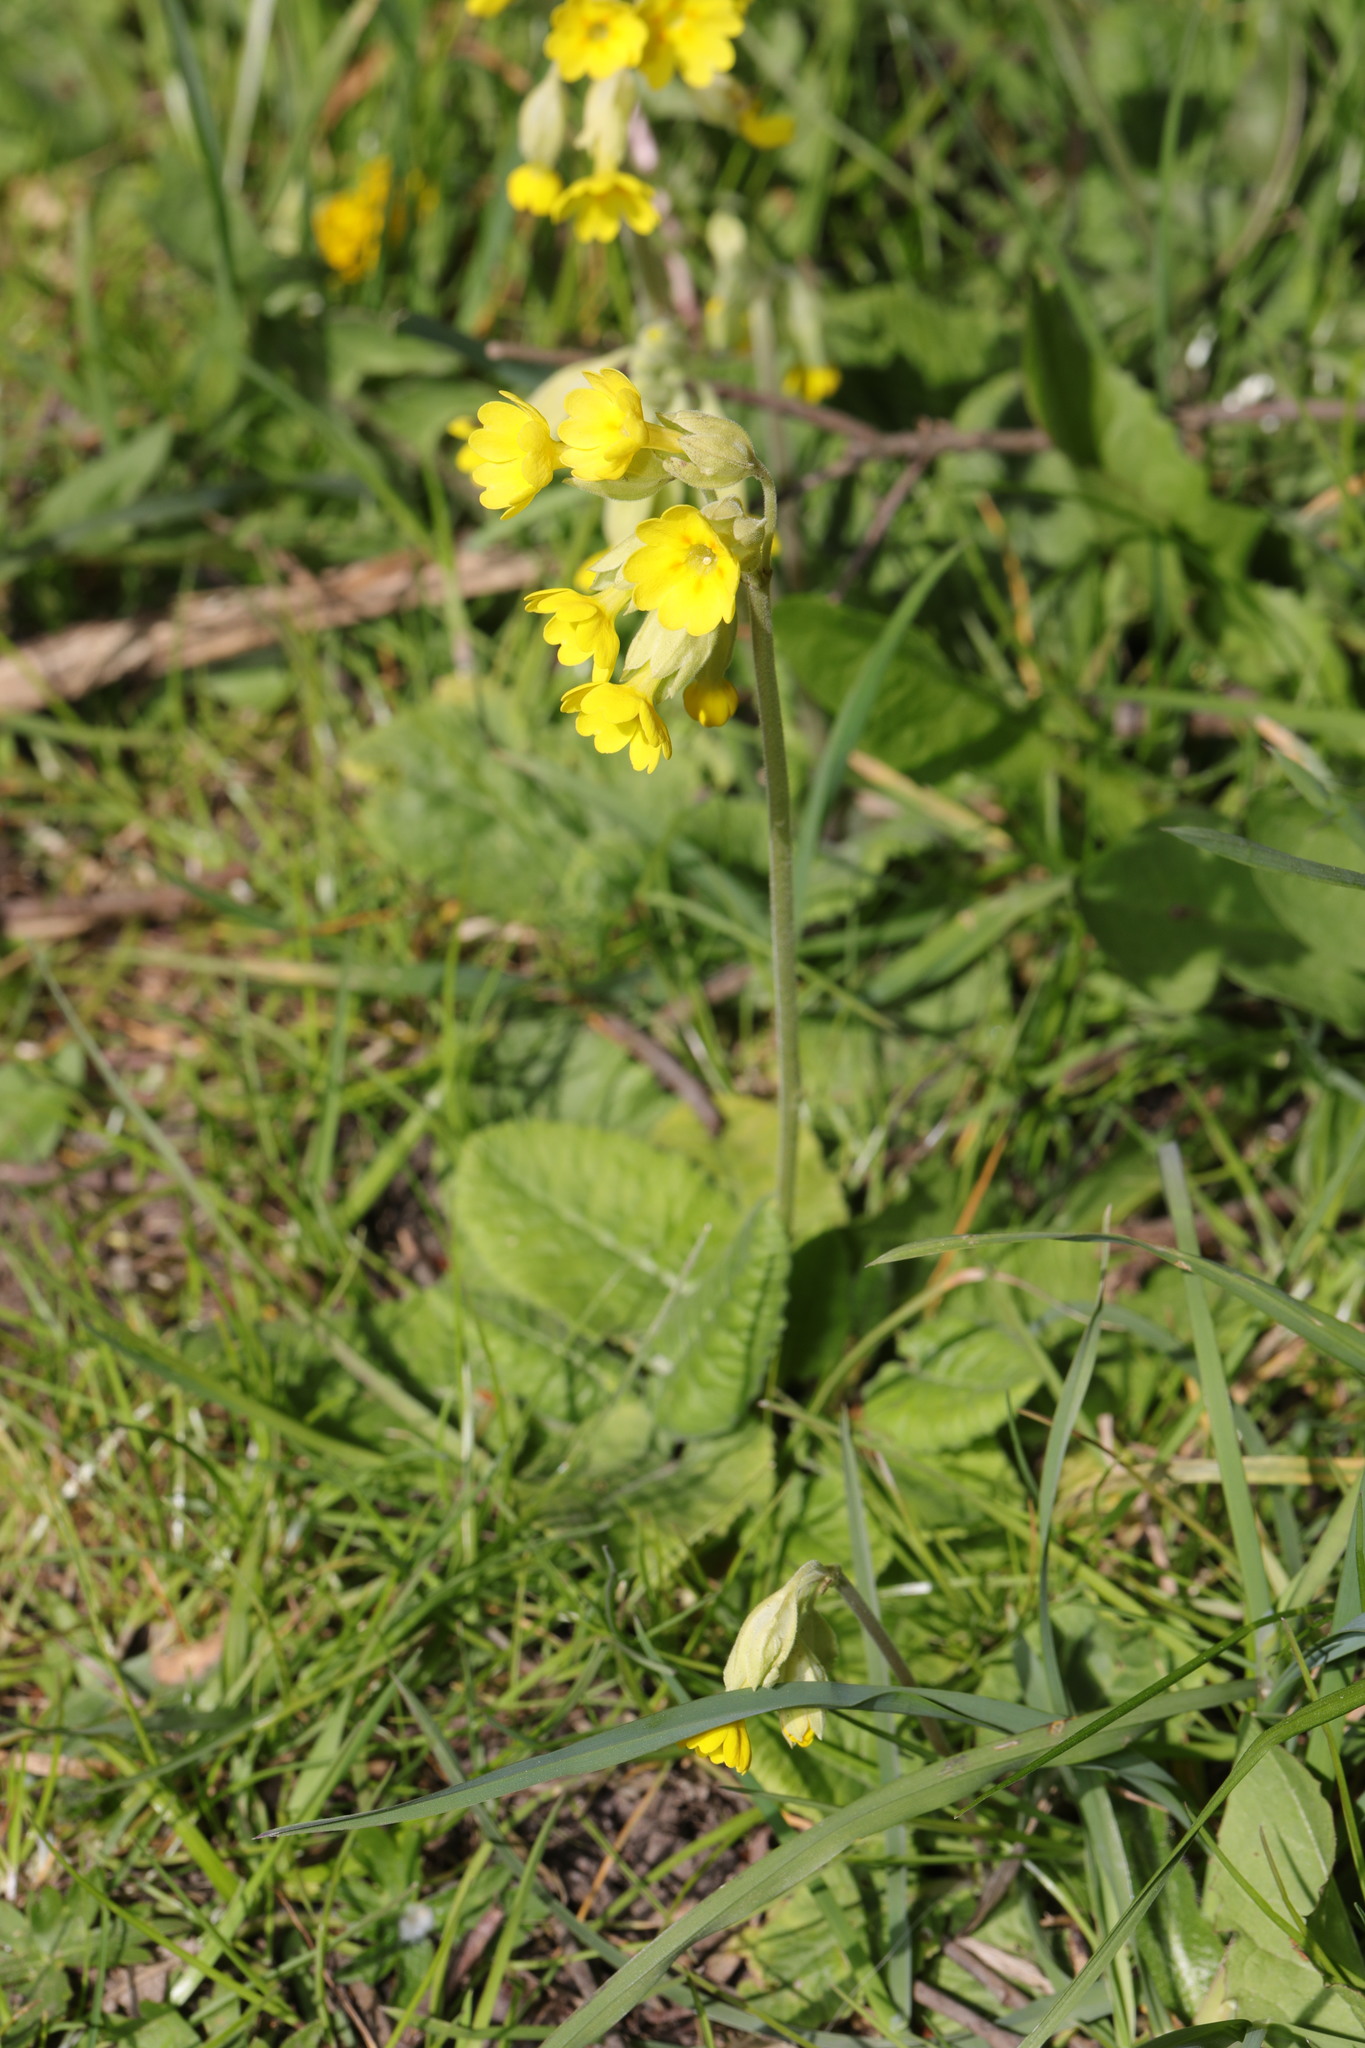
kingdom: Plantae
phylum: Tracheophyta
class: Magnoliopsida
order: Ericales
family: Primulaceae
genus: Primula
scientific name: Primula veris
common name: Cowslip
